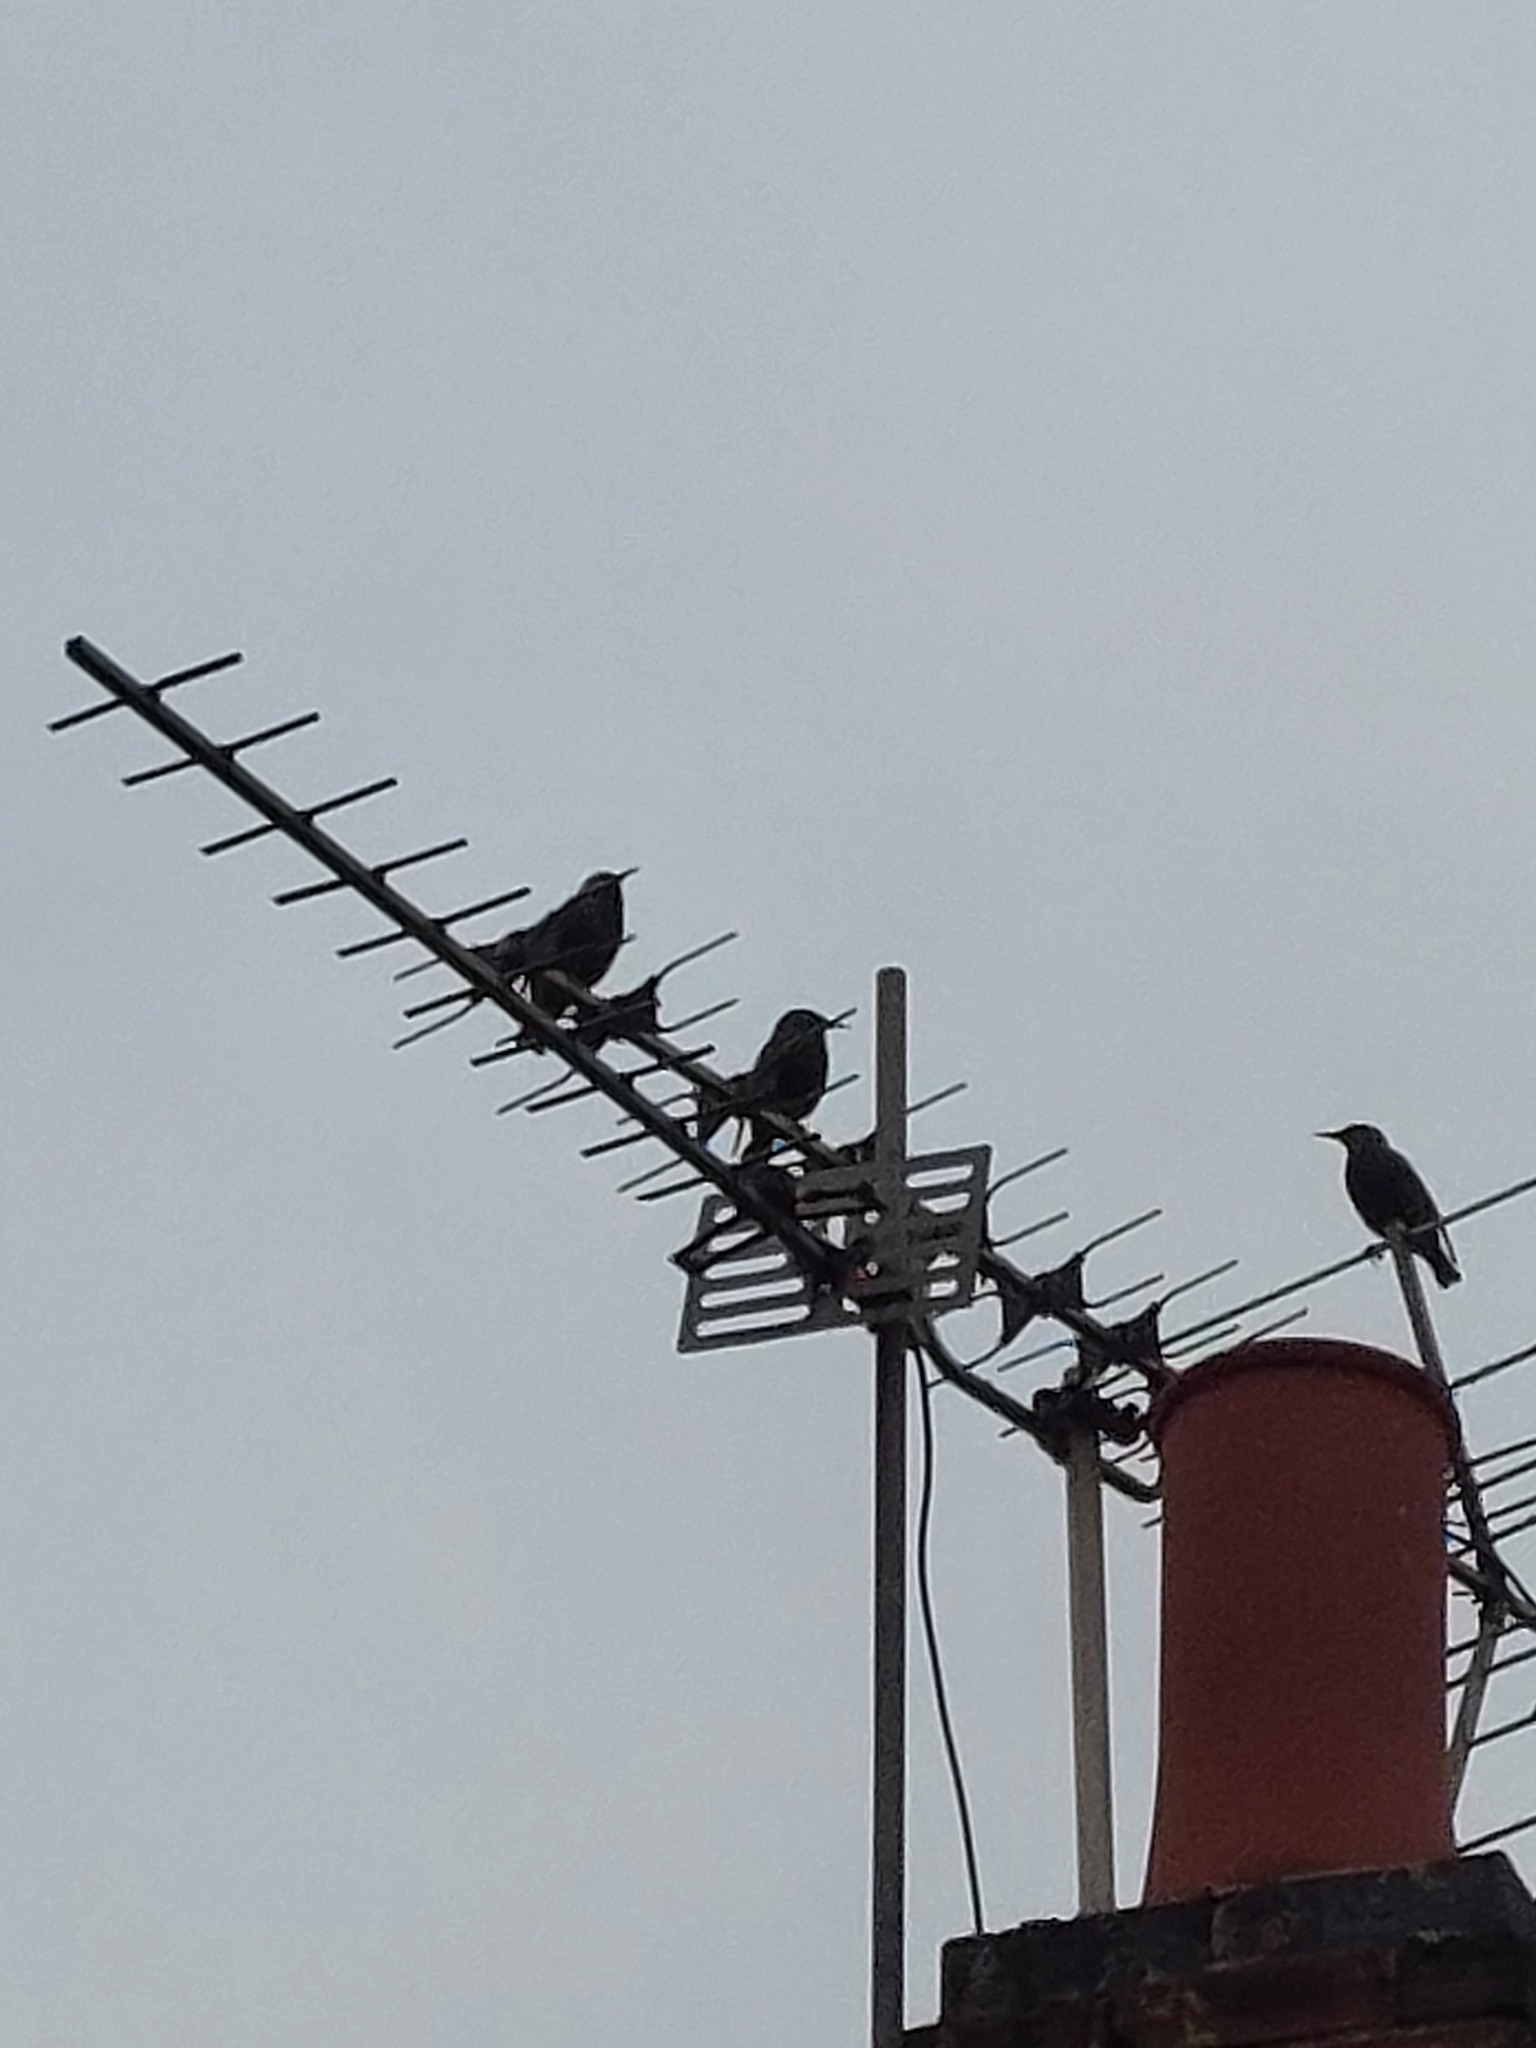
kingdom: Animalia
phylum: Chordata
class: Aves
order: Passeriformes
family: Sturnidae
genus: Sturnus
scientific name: Sturnus vulgaris
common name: Common starling
